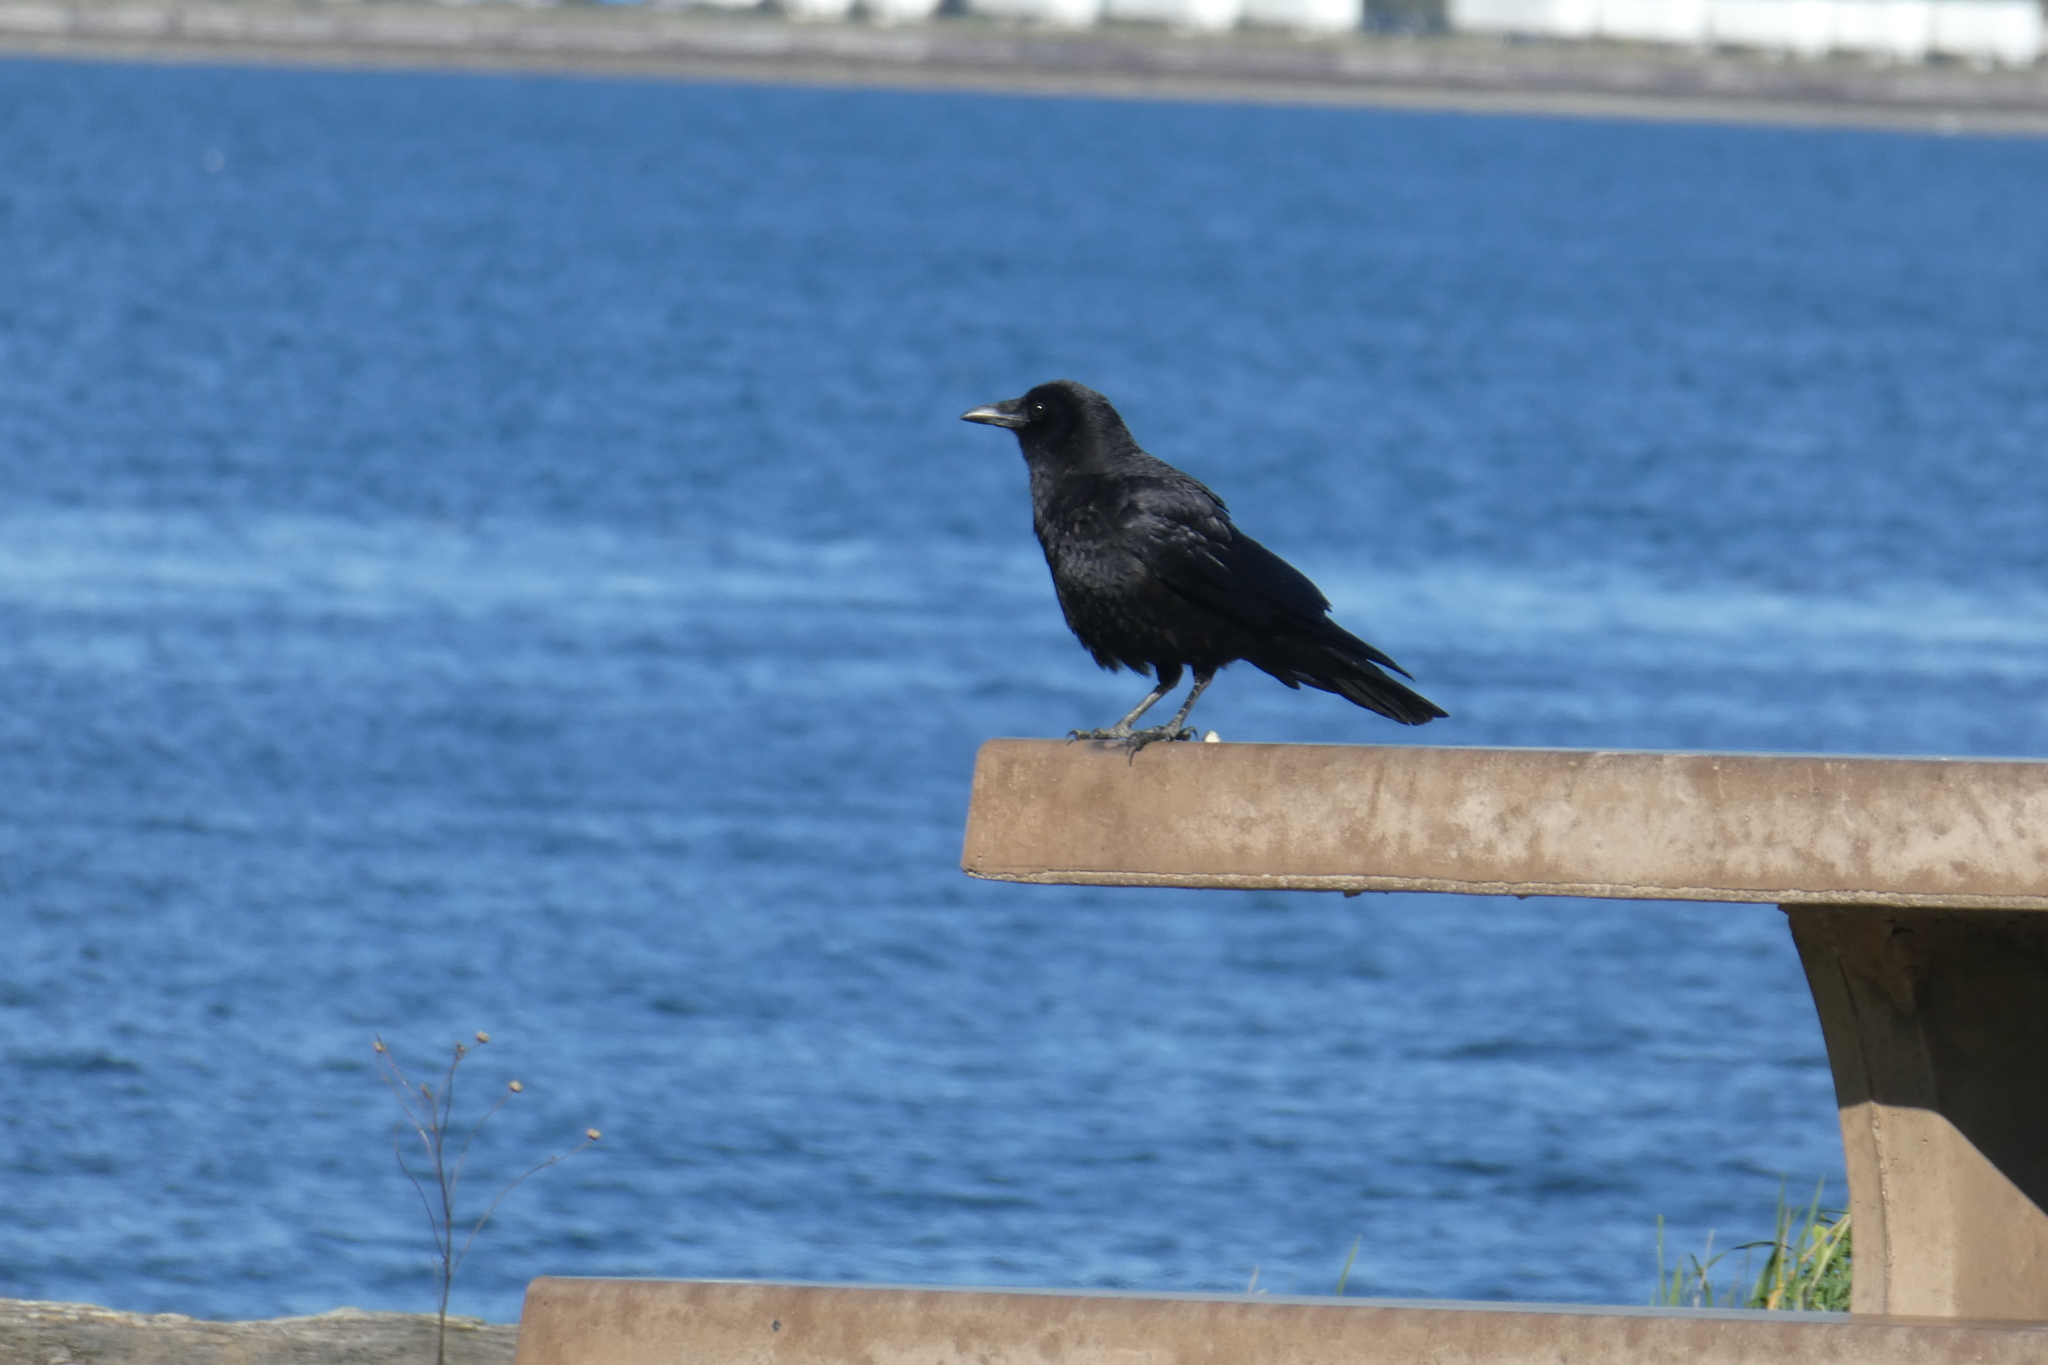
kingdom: Animalia
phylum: Chordata
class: Aves
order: Passeriformes
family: Corvidae
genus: Corvus
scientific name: Corvus brachyrhynchos
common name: American crow
